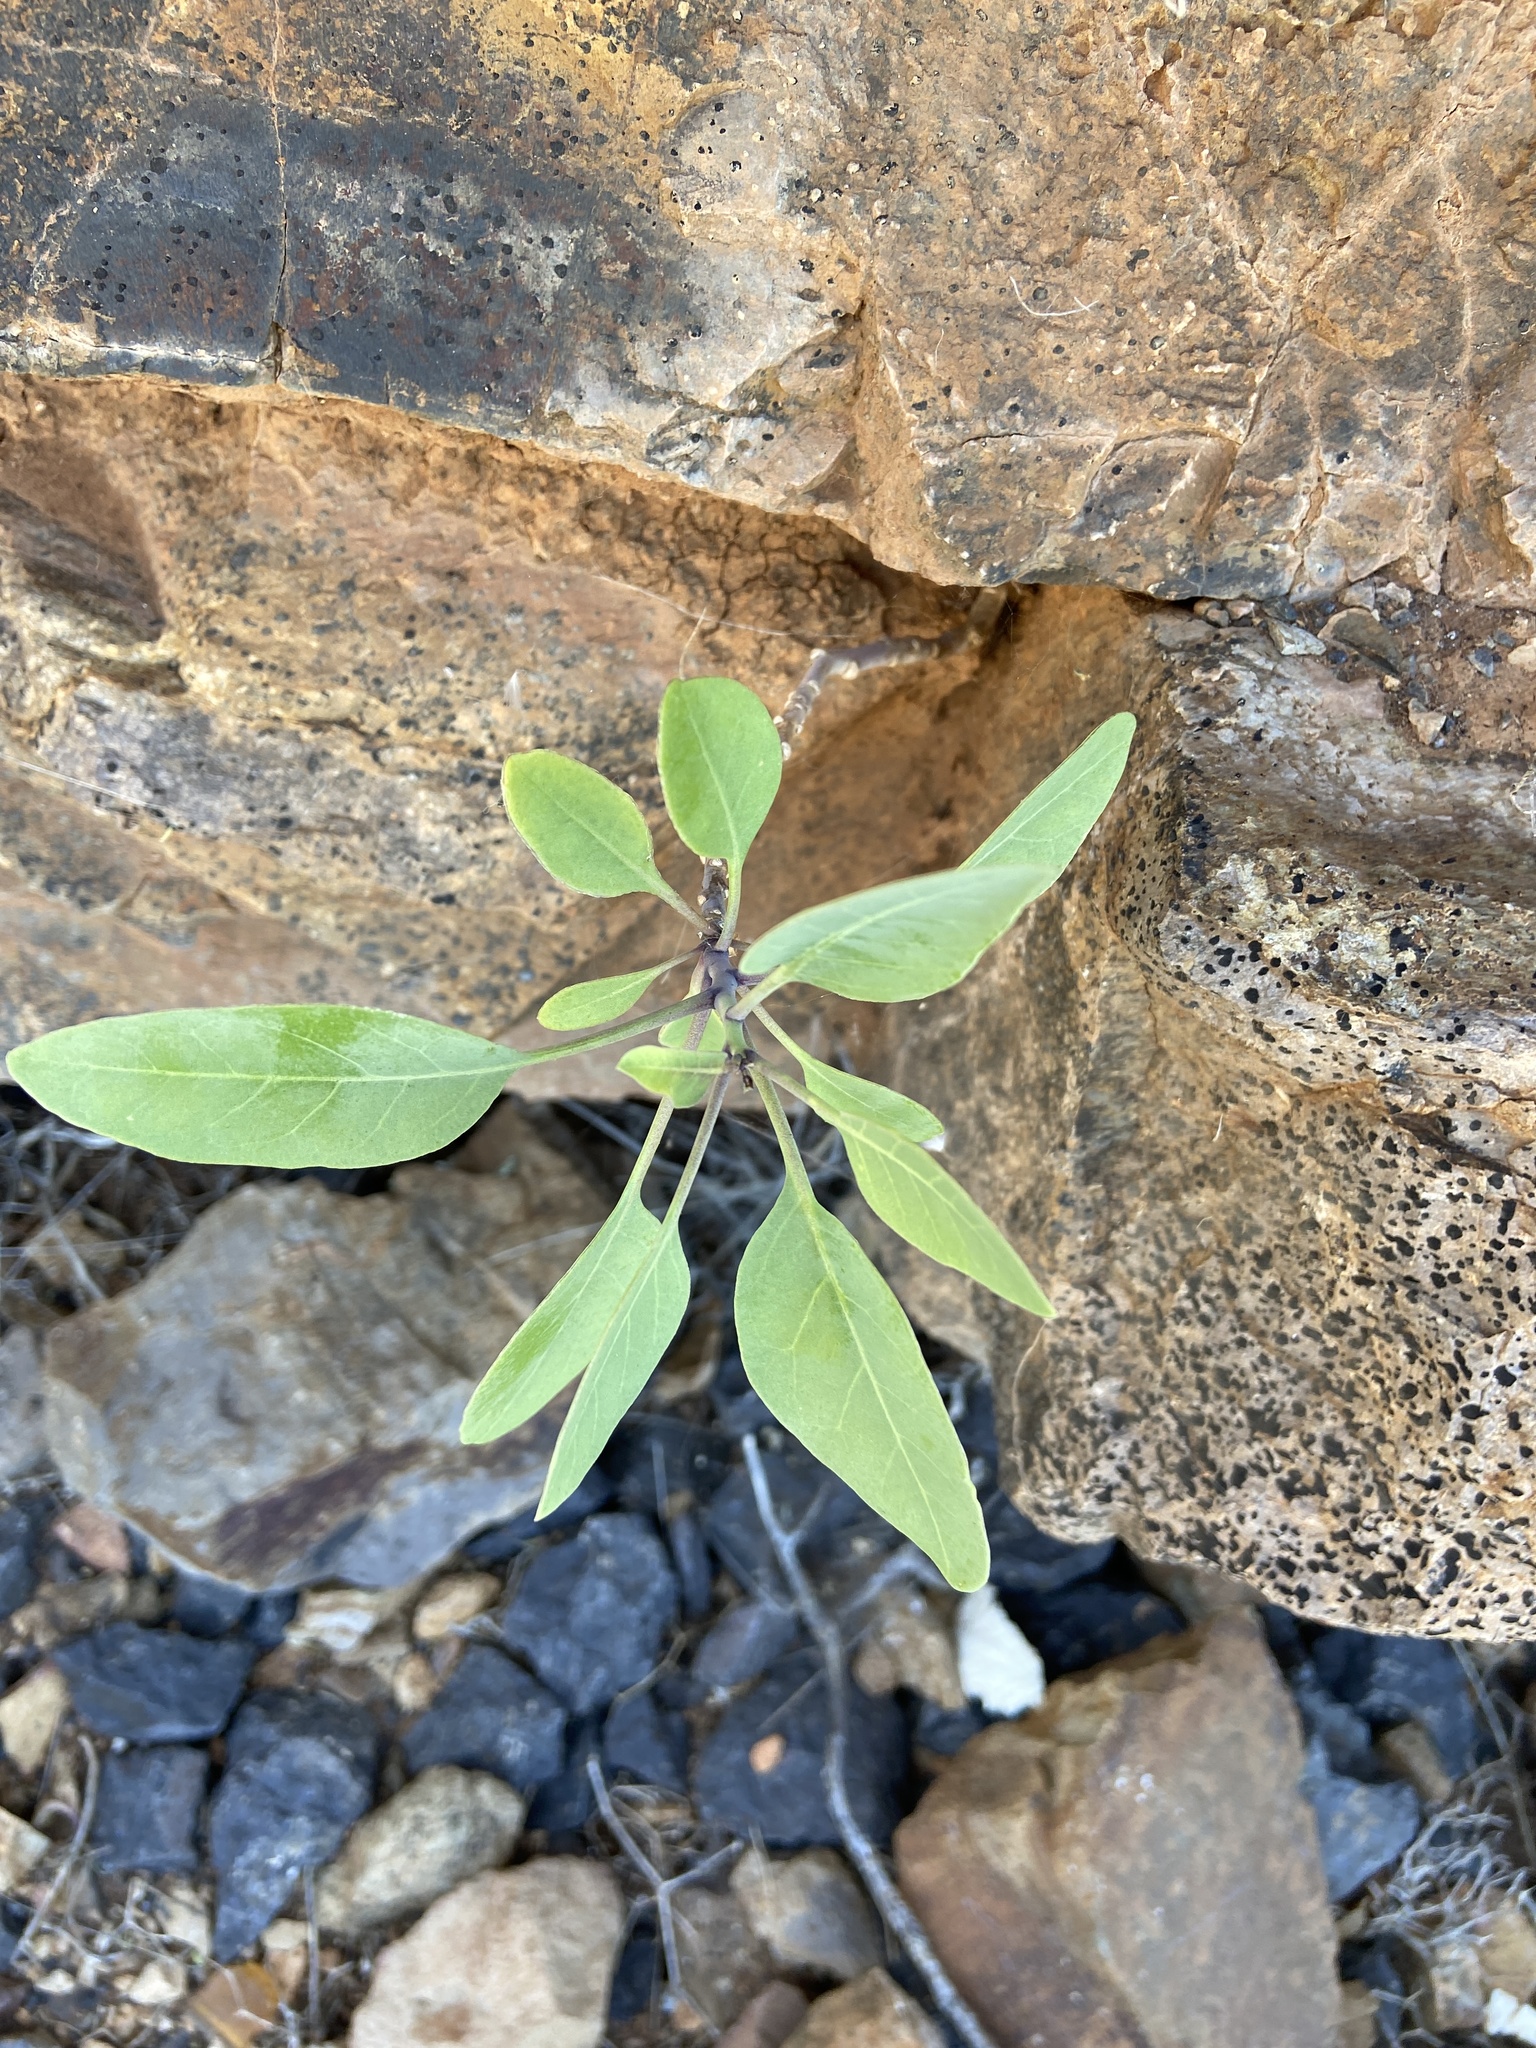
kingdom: Plantae
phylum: Tracheophyta
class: Magnoliopsida
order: Solanales
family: Solanaceae
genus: Nicotiana
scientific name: Nicotiana glauca
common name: Tree tobacco
